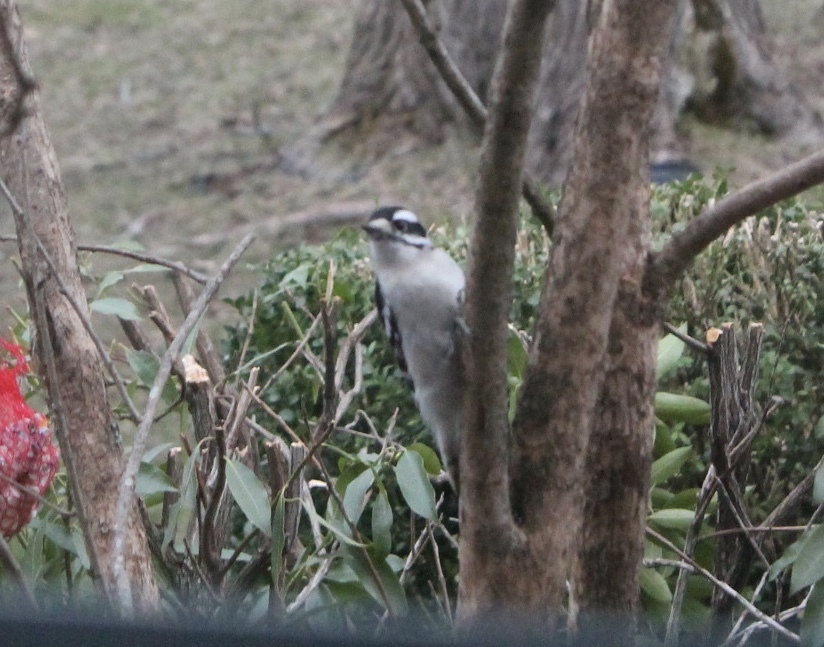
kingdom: Animalia
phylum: Chordata
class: Aves
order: Piciformes
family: Picidae
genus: Dryobates
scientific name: Dryobates pubescens
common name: Downy woodpecker
